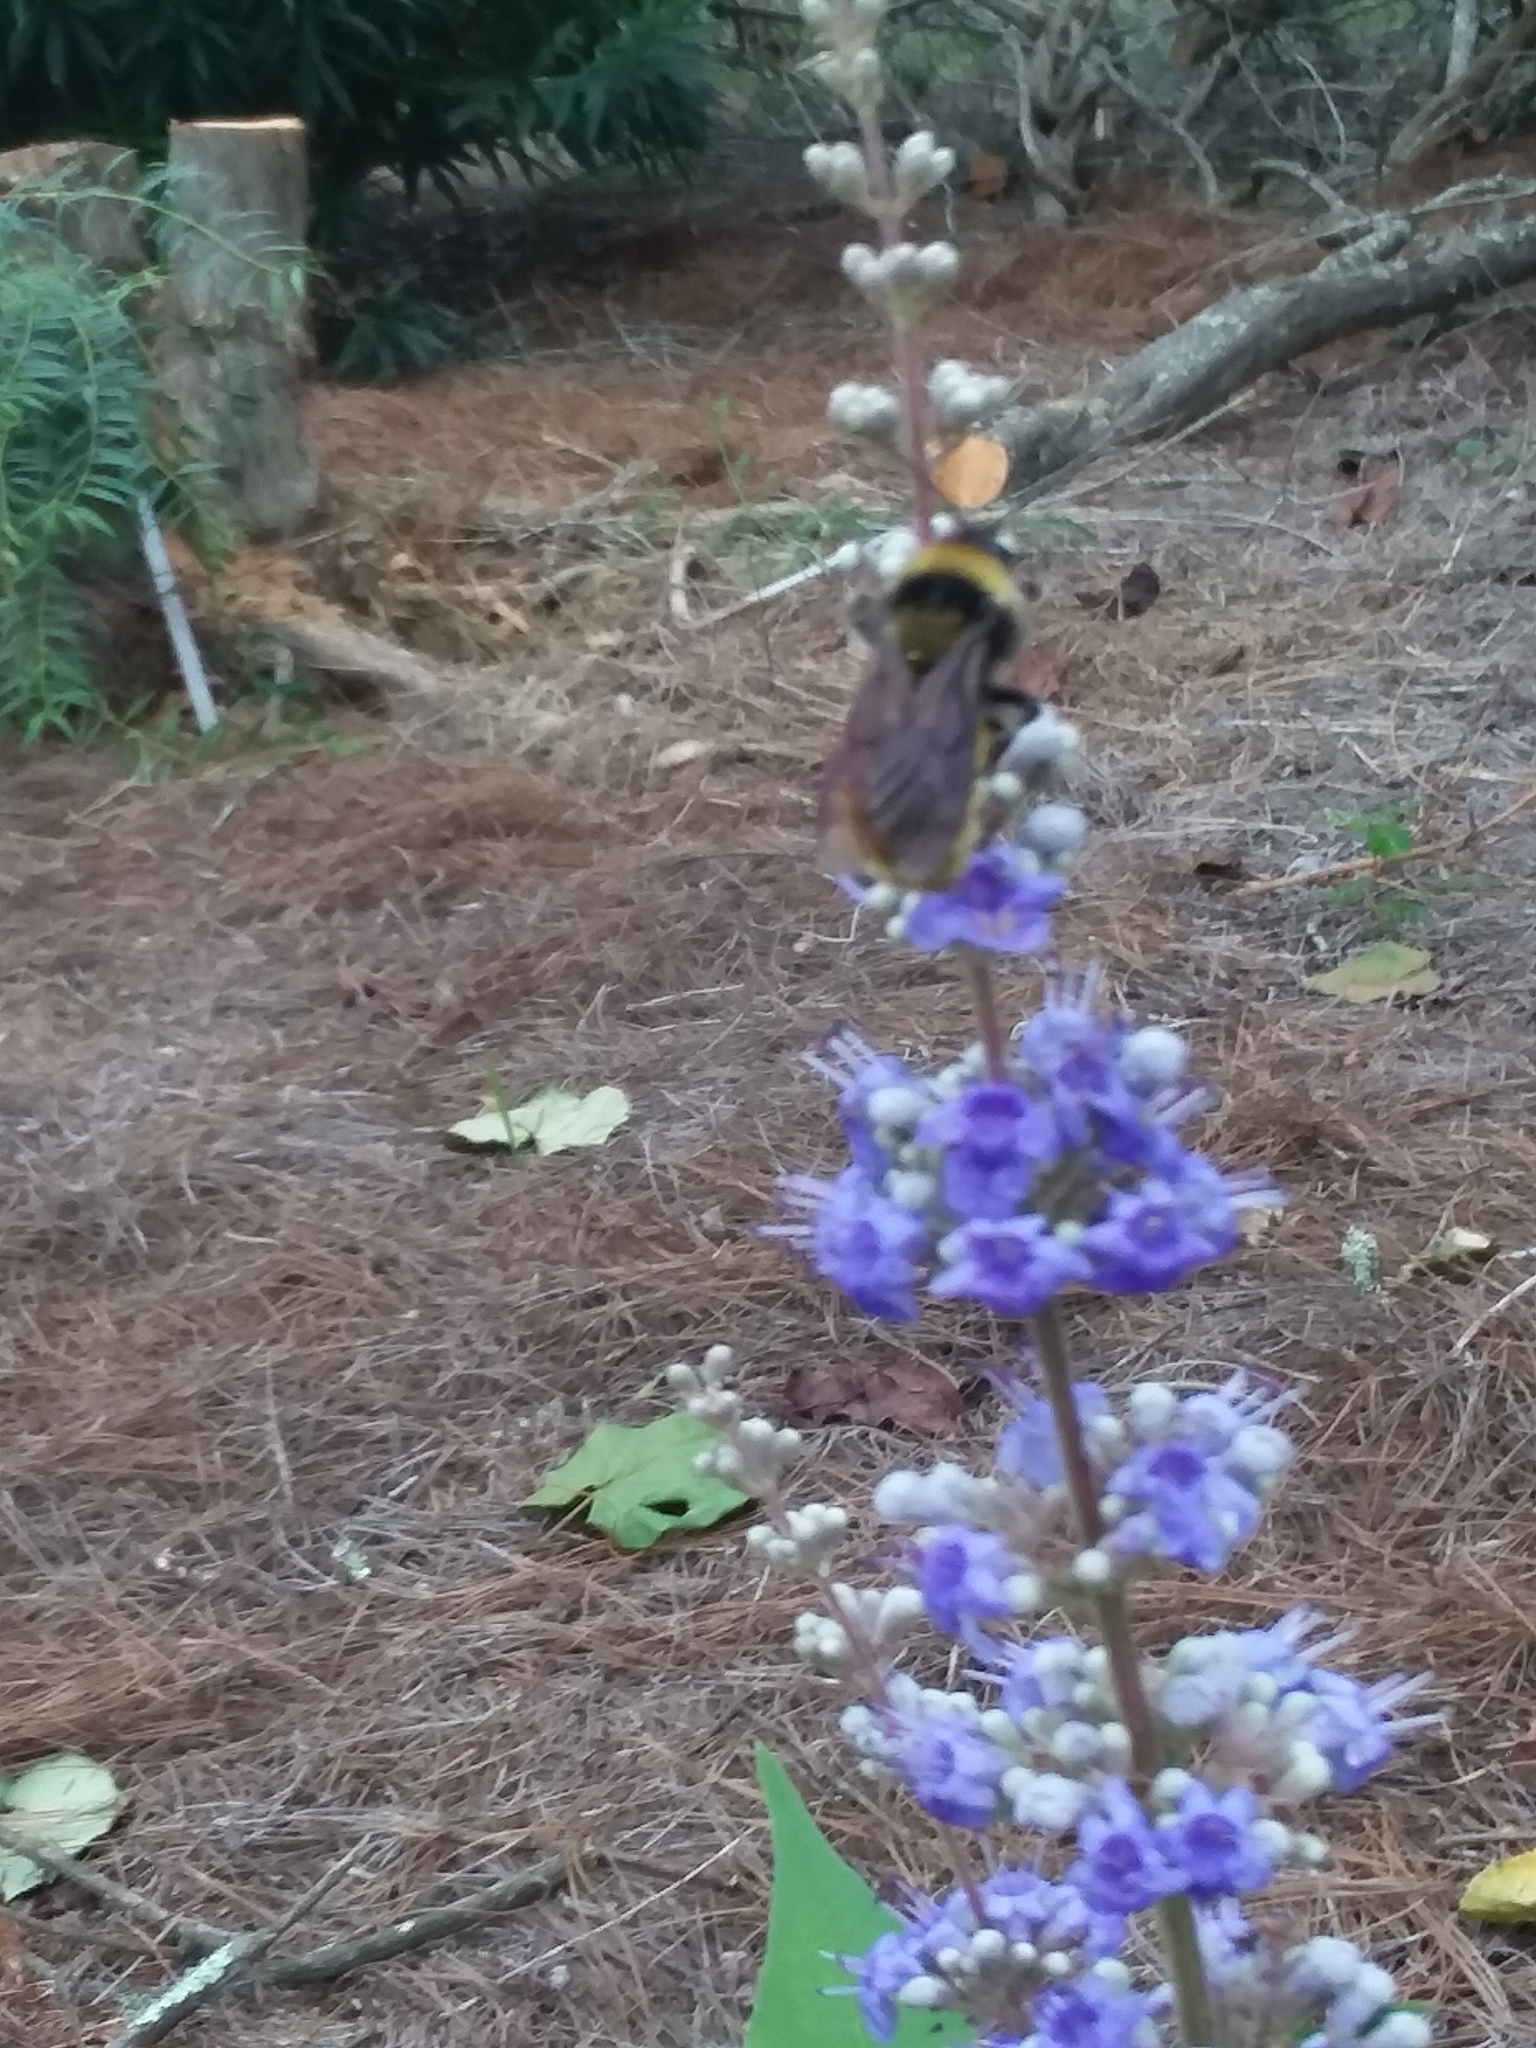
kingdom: Animalia
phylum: Arthropoda
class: Insecta
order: Hymenoptera
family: Apidae
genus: Bombus
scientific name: Bombus pensylvanicus
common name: Bumble bee
